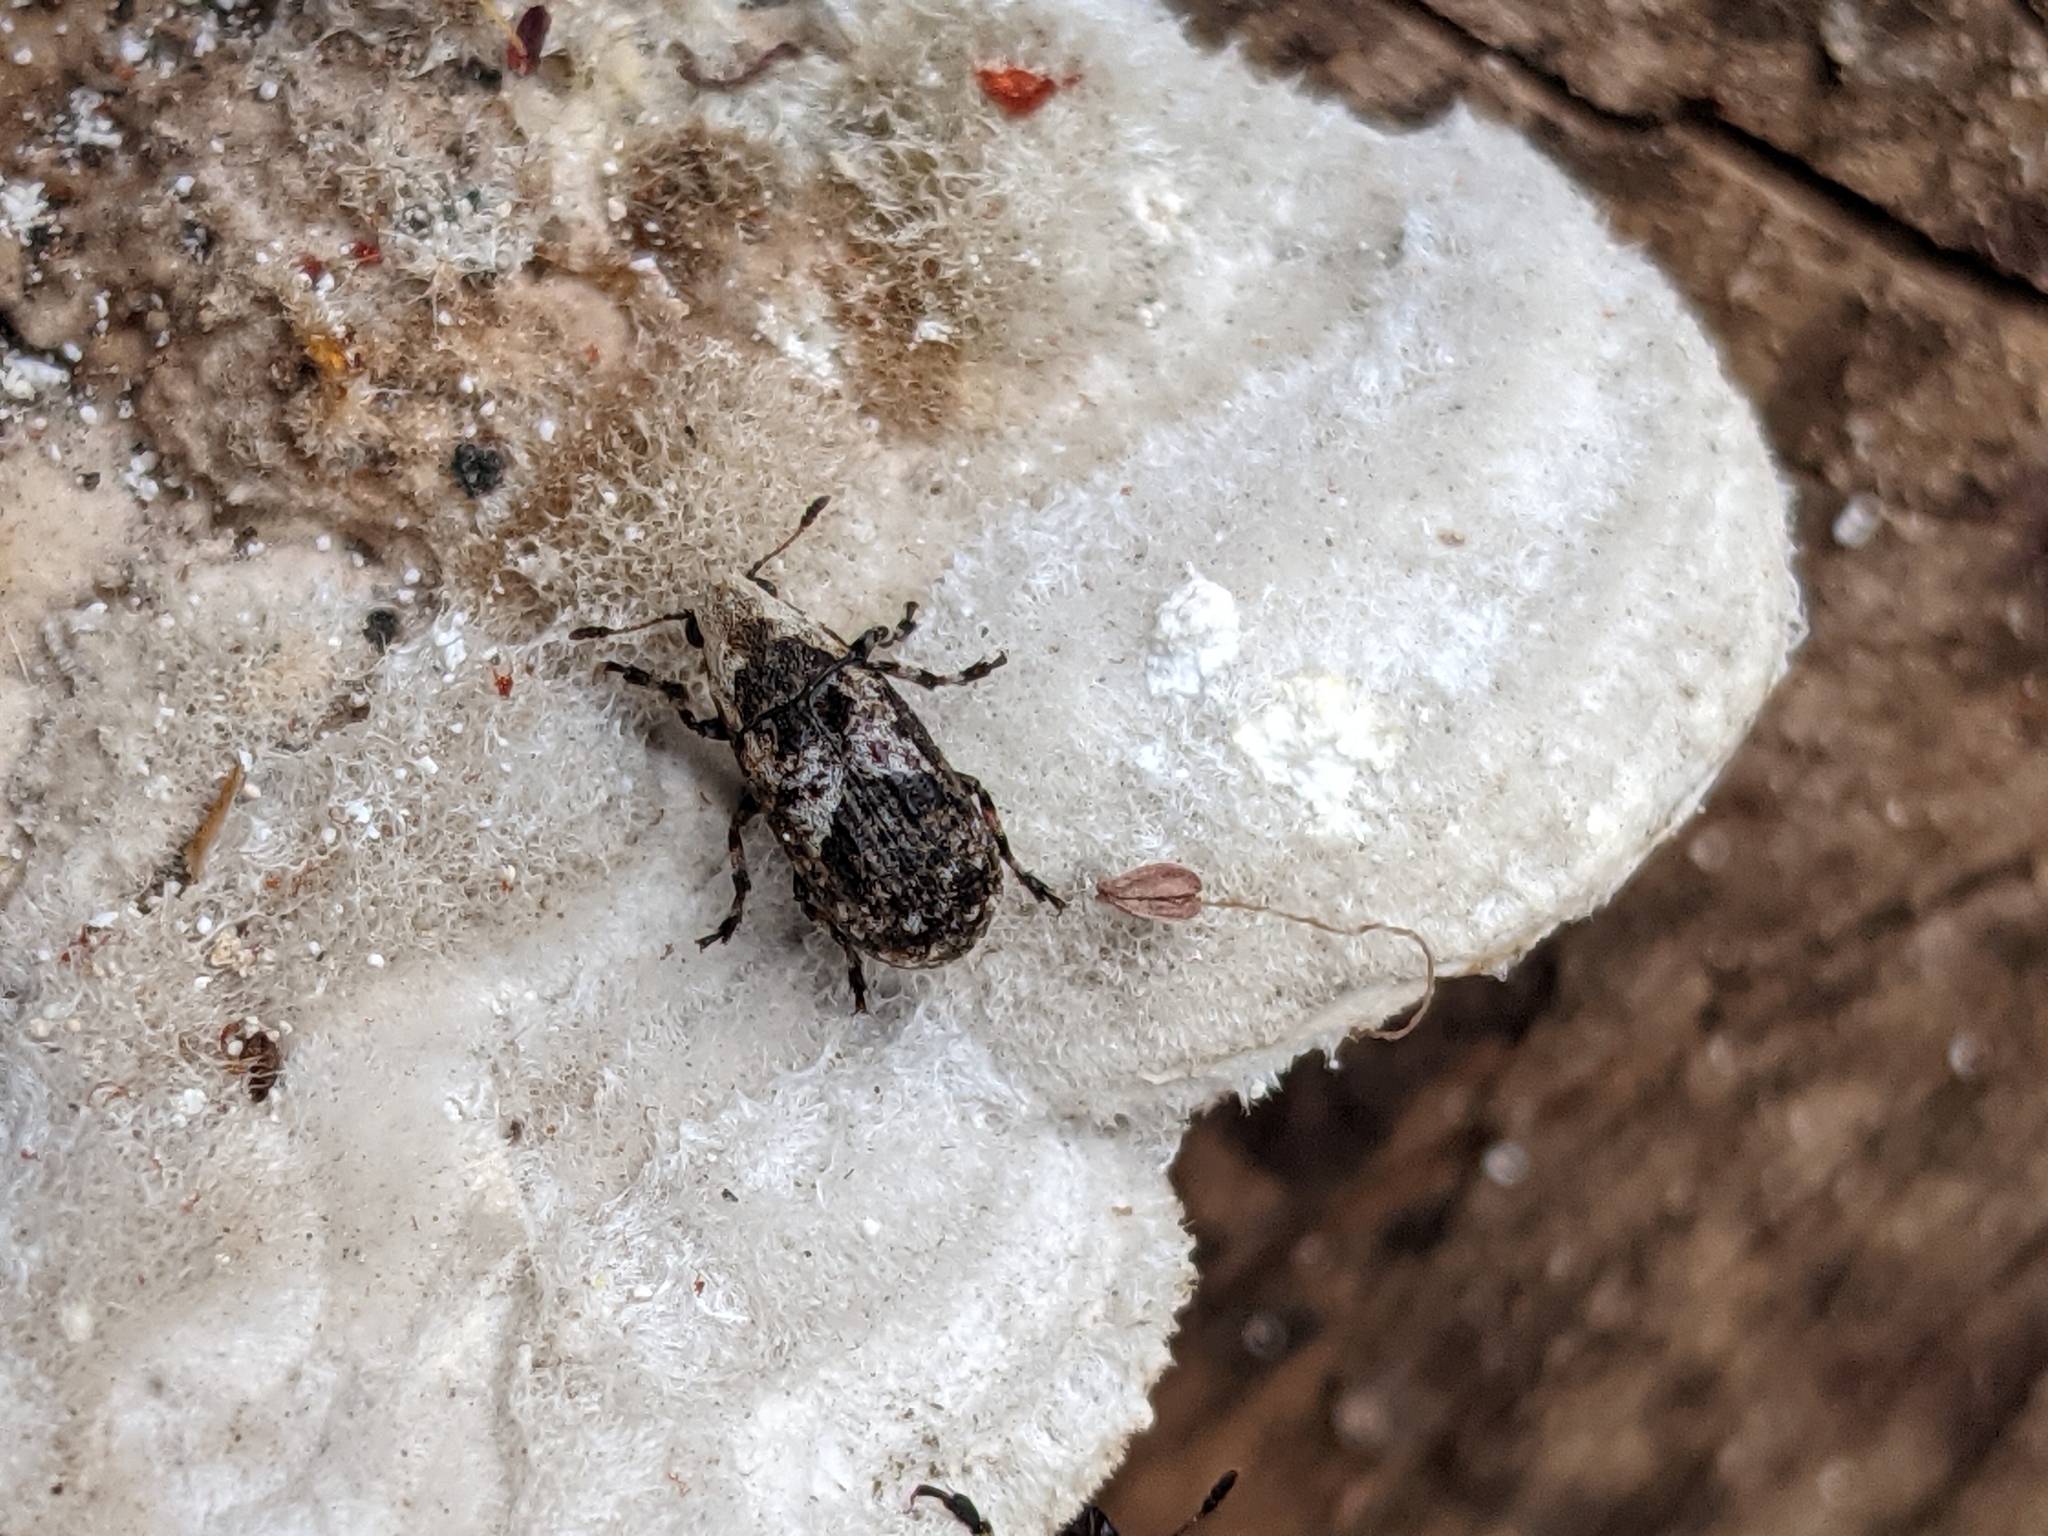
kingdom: Animalia
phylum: Arthropoda
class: Insecta
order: Coleoptera
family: Anthribidae
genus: Euparius
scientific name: Euparius marmoreus
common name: Marbled fungus weevil
